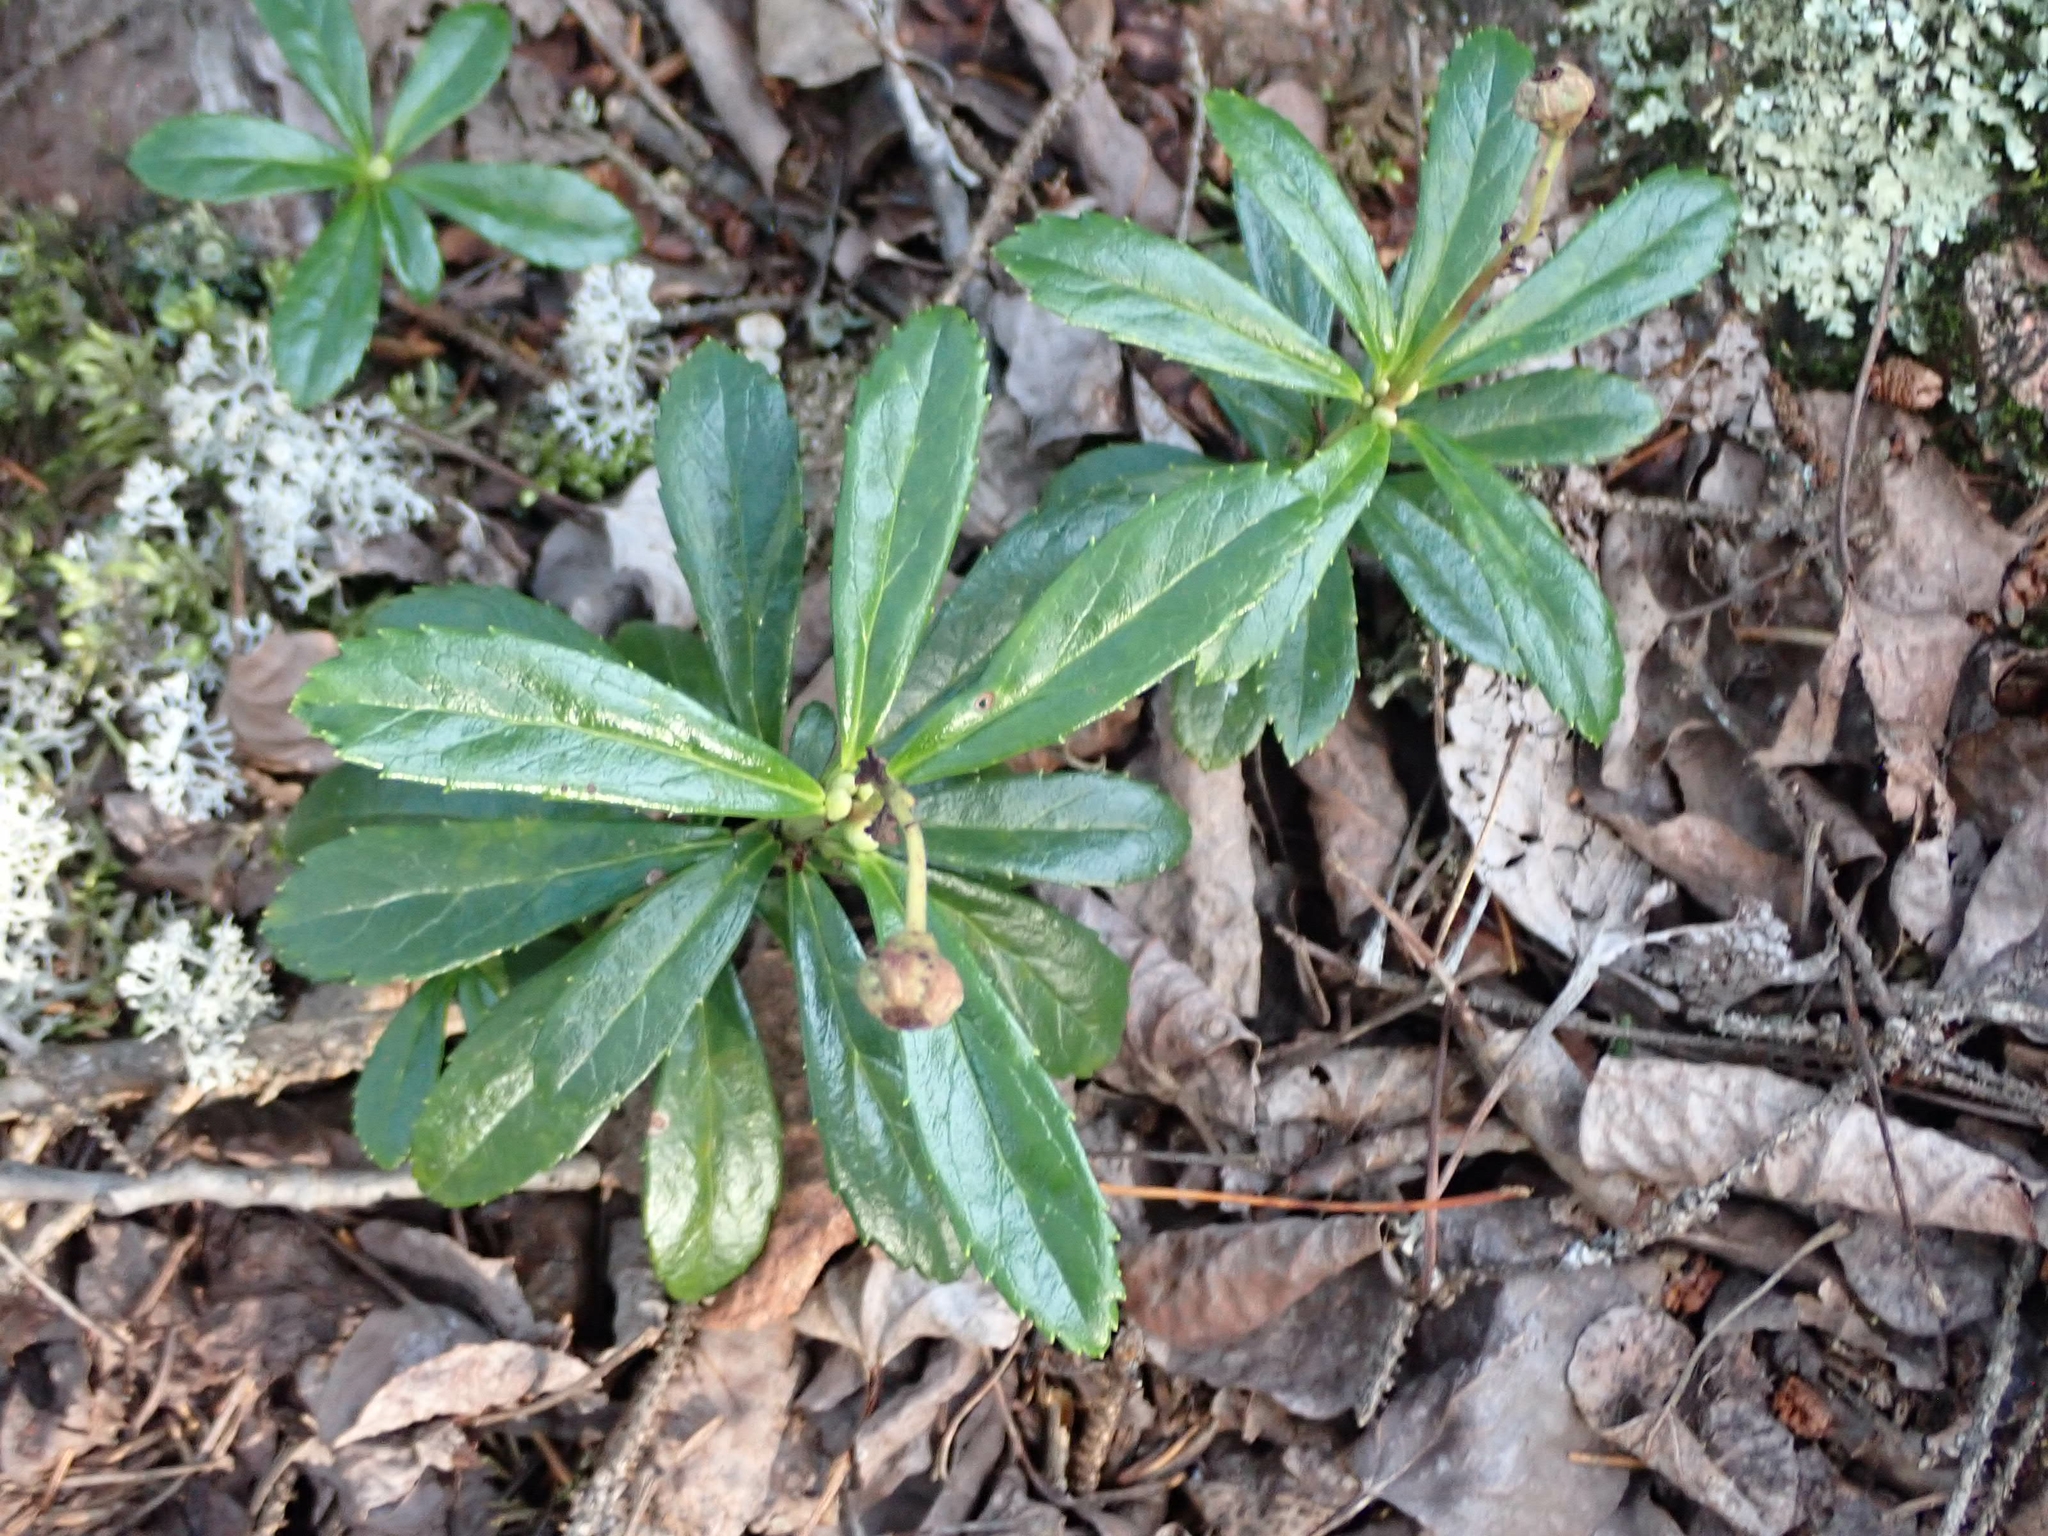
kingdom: Plantae
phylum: Tracheophyta
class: Magnoliopsida
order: Ericales
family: Ericaceae
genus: Chimaphila
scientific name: Chimaphila umbellata
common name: Pipsissewa
